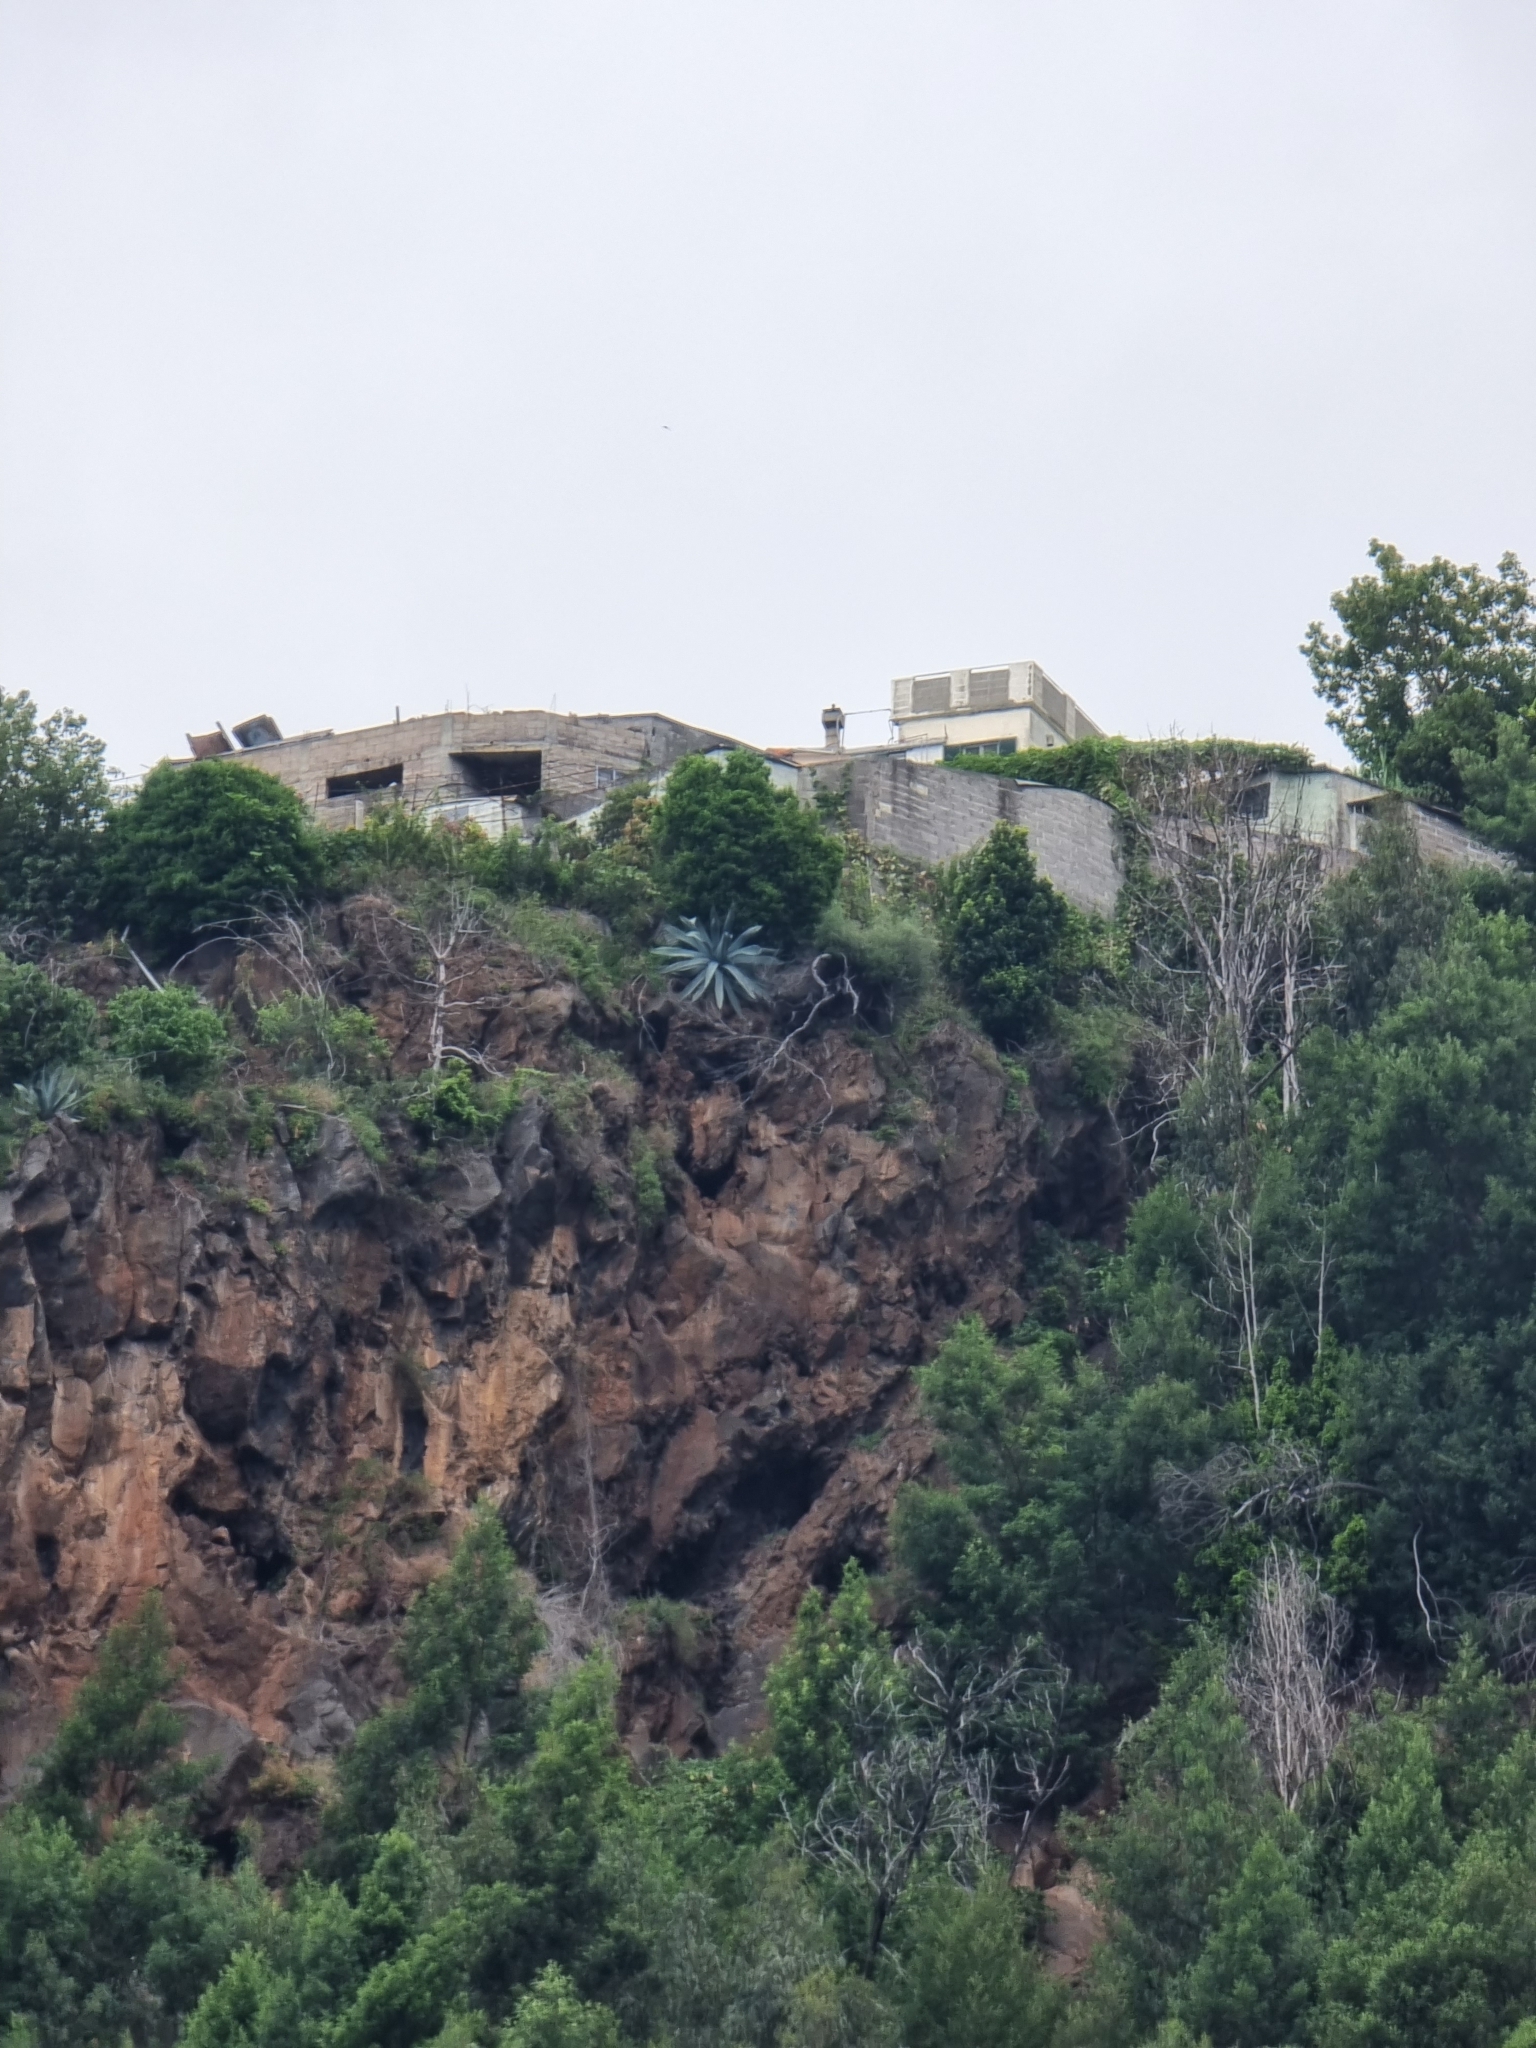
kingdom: Plantae
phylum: Tracheophyta
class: Liliopsida
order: Asparagales
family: Asparagaceae
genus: Agave
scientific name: Agave americana
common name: Centuryplant
